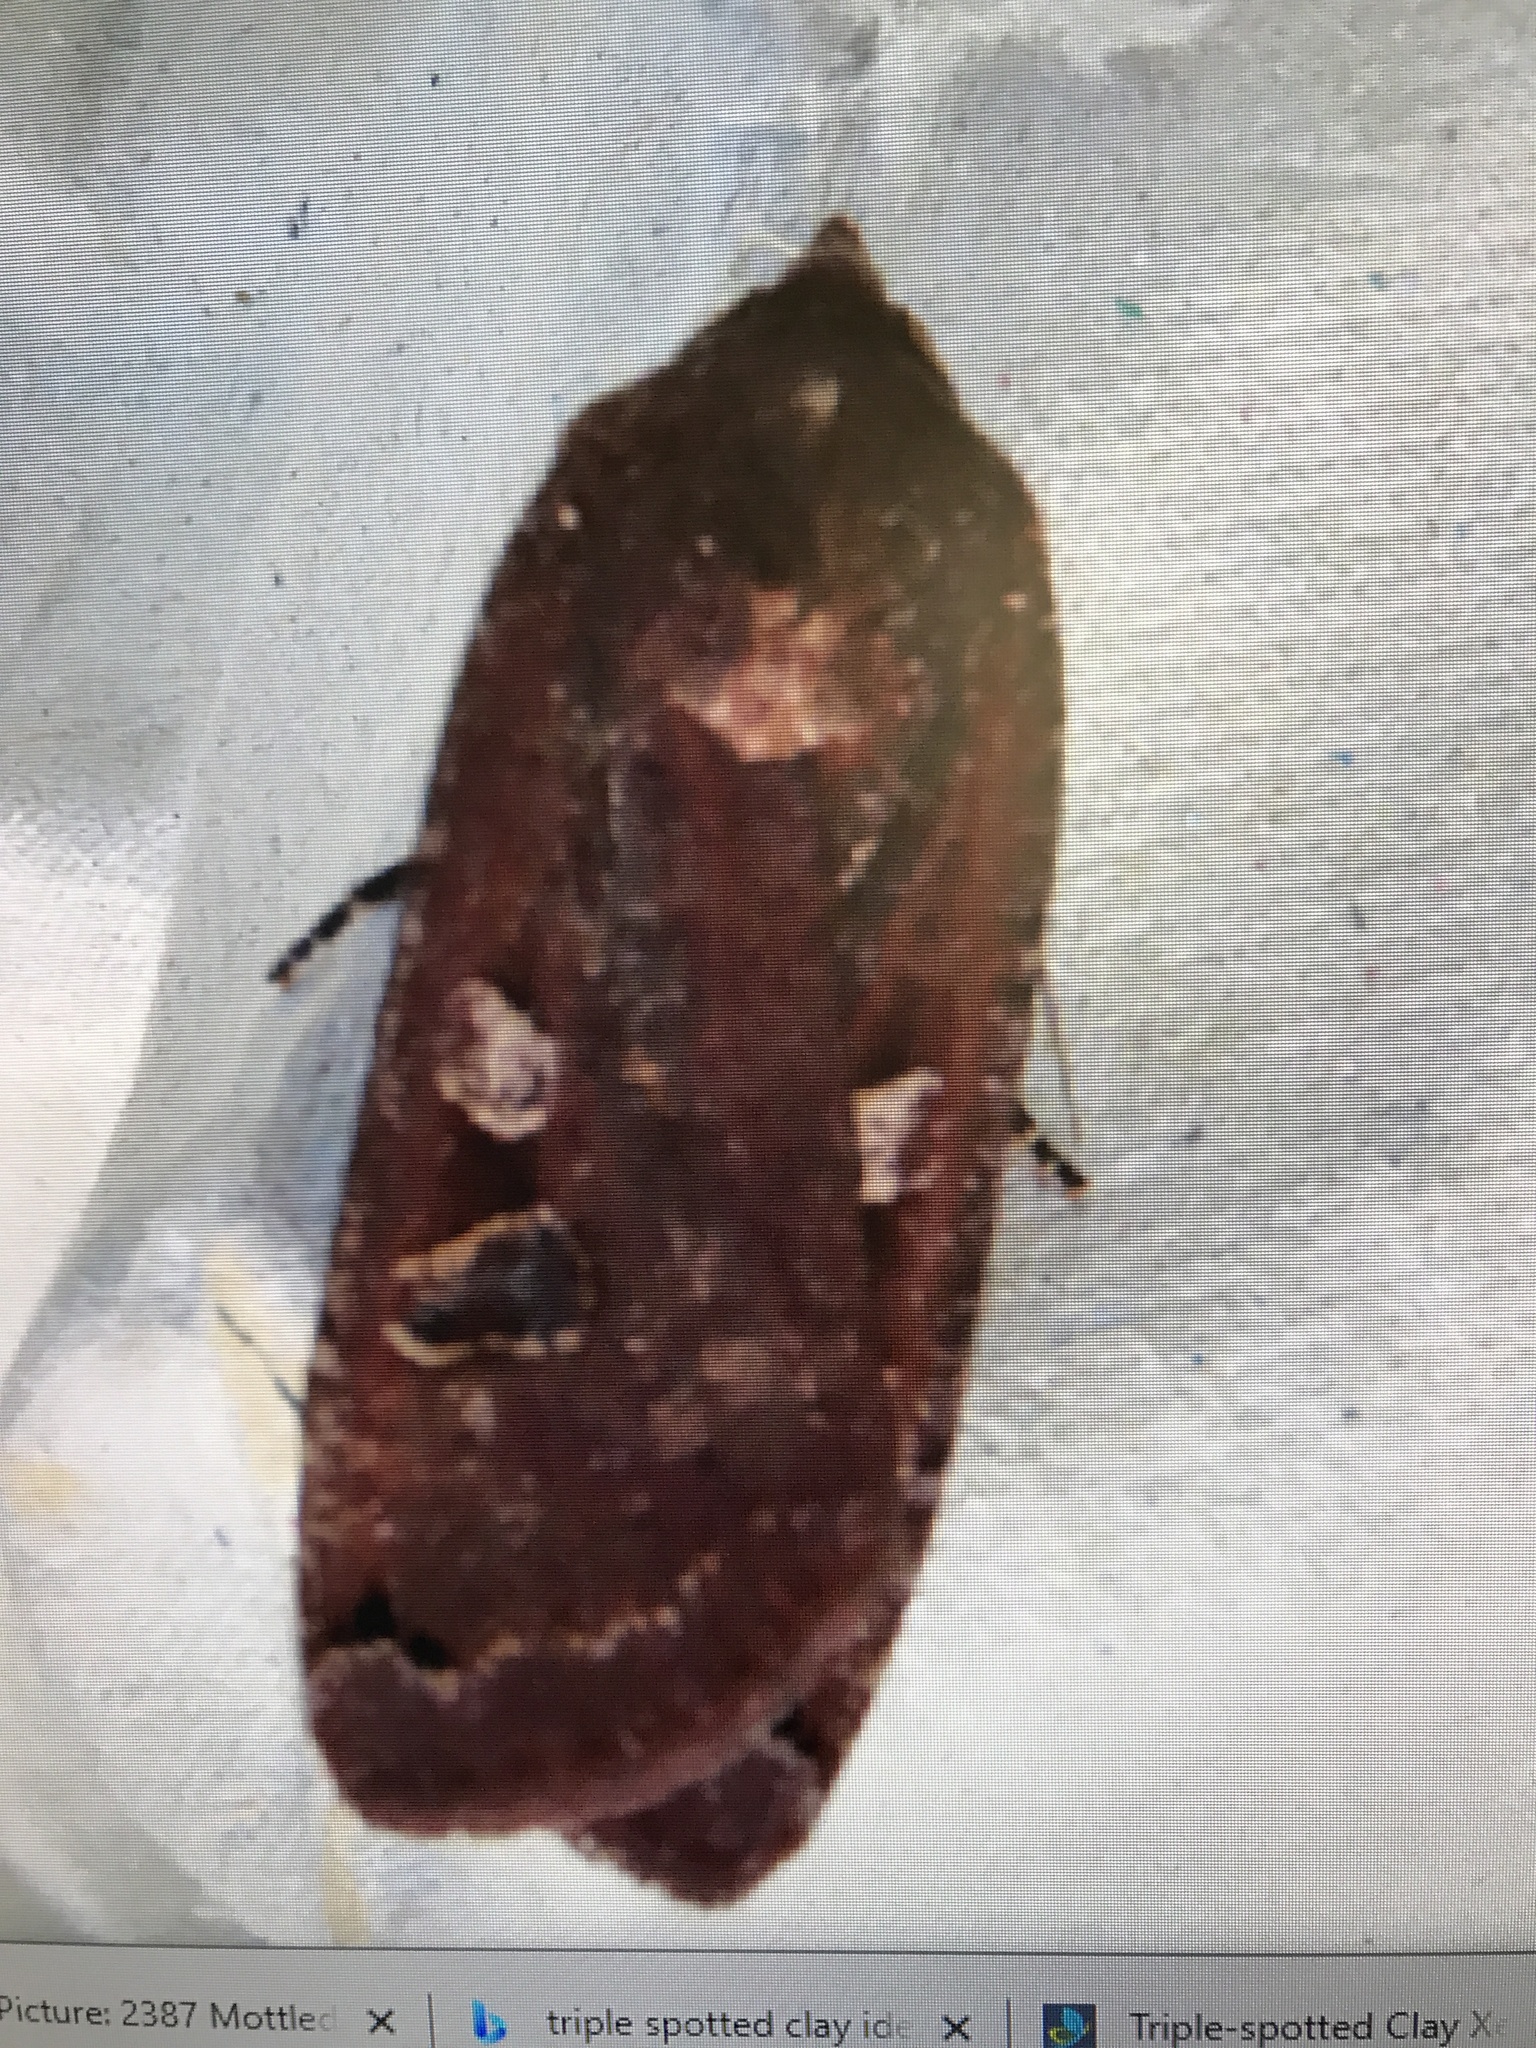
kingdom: Animalia
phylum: Arthropoda
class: Insecta
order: Lepidoptera
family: Noctuidae
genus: Noctua
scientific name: Noctua pronuba
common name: Large yellow underwing
